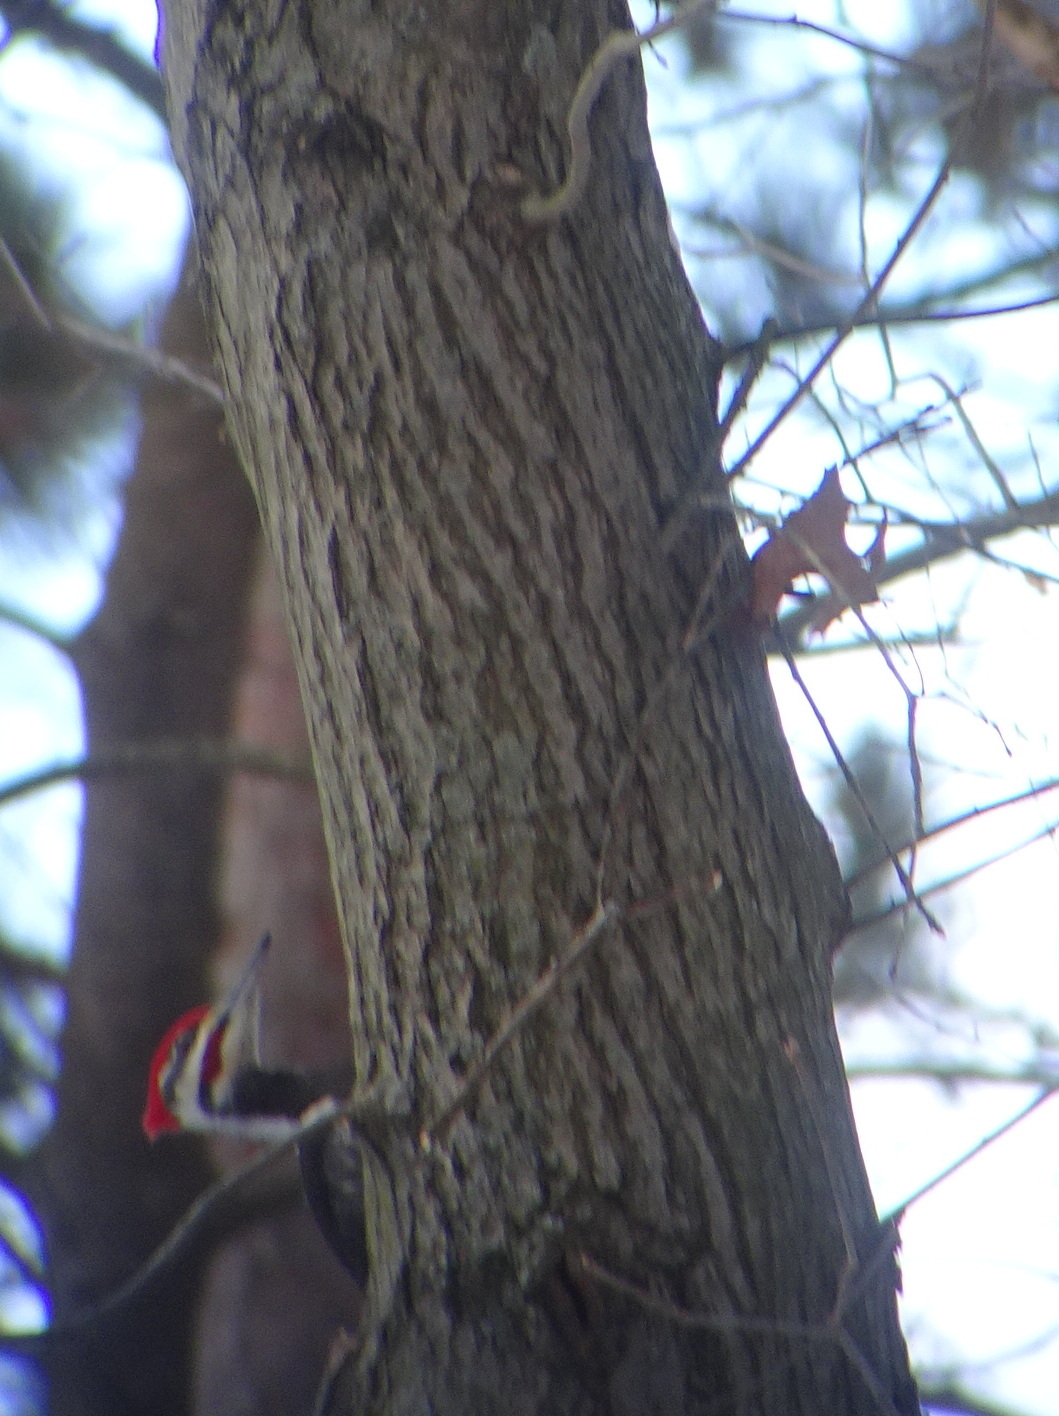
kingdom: Animalia
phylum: Chordata
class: Aves
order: Piciformes
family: Picidae
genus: Dryocopus
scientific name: Dryocopus pileatus
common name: Pileated woodpecker
